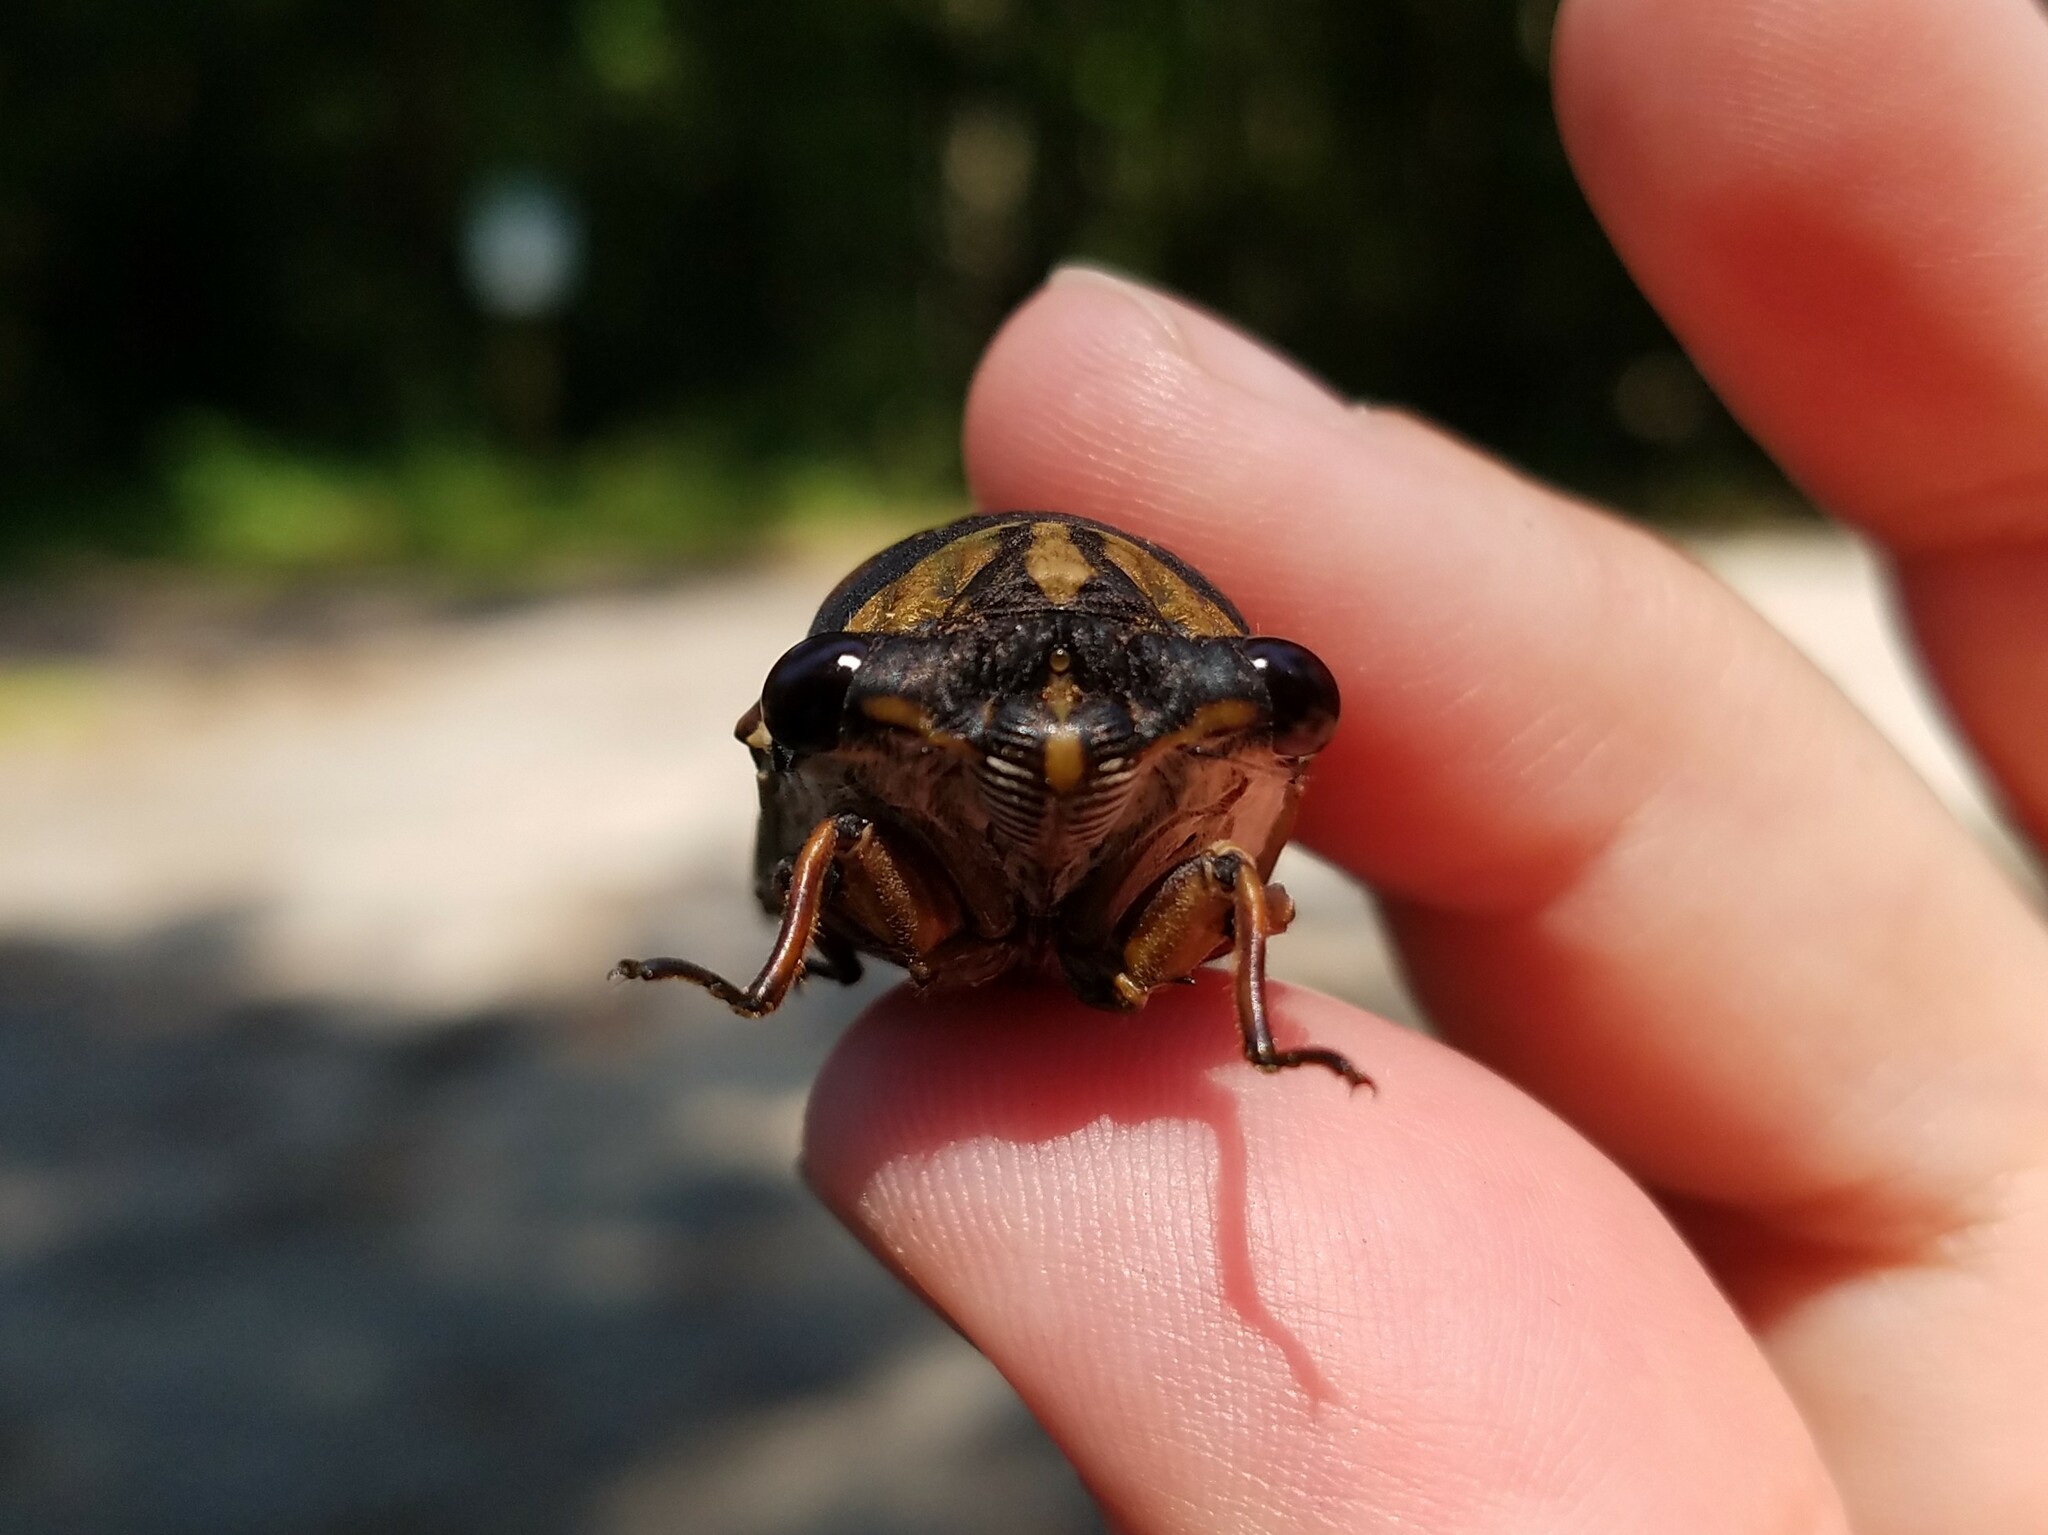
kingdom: Animalia
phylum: Arthropoda
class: Insecta
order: Hemiptera
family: Cicadidae
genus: Neotibicen
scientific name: Neotibicen lyricen
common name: Lyric cicada
